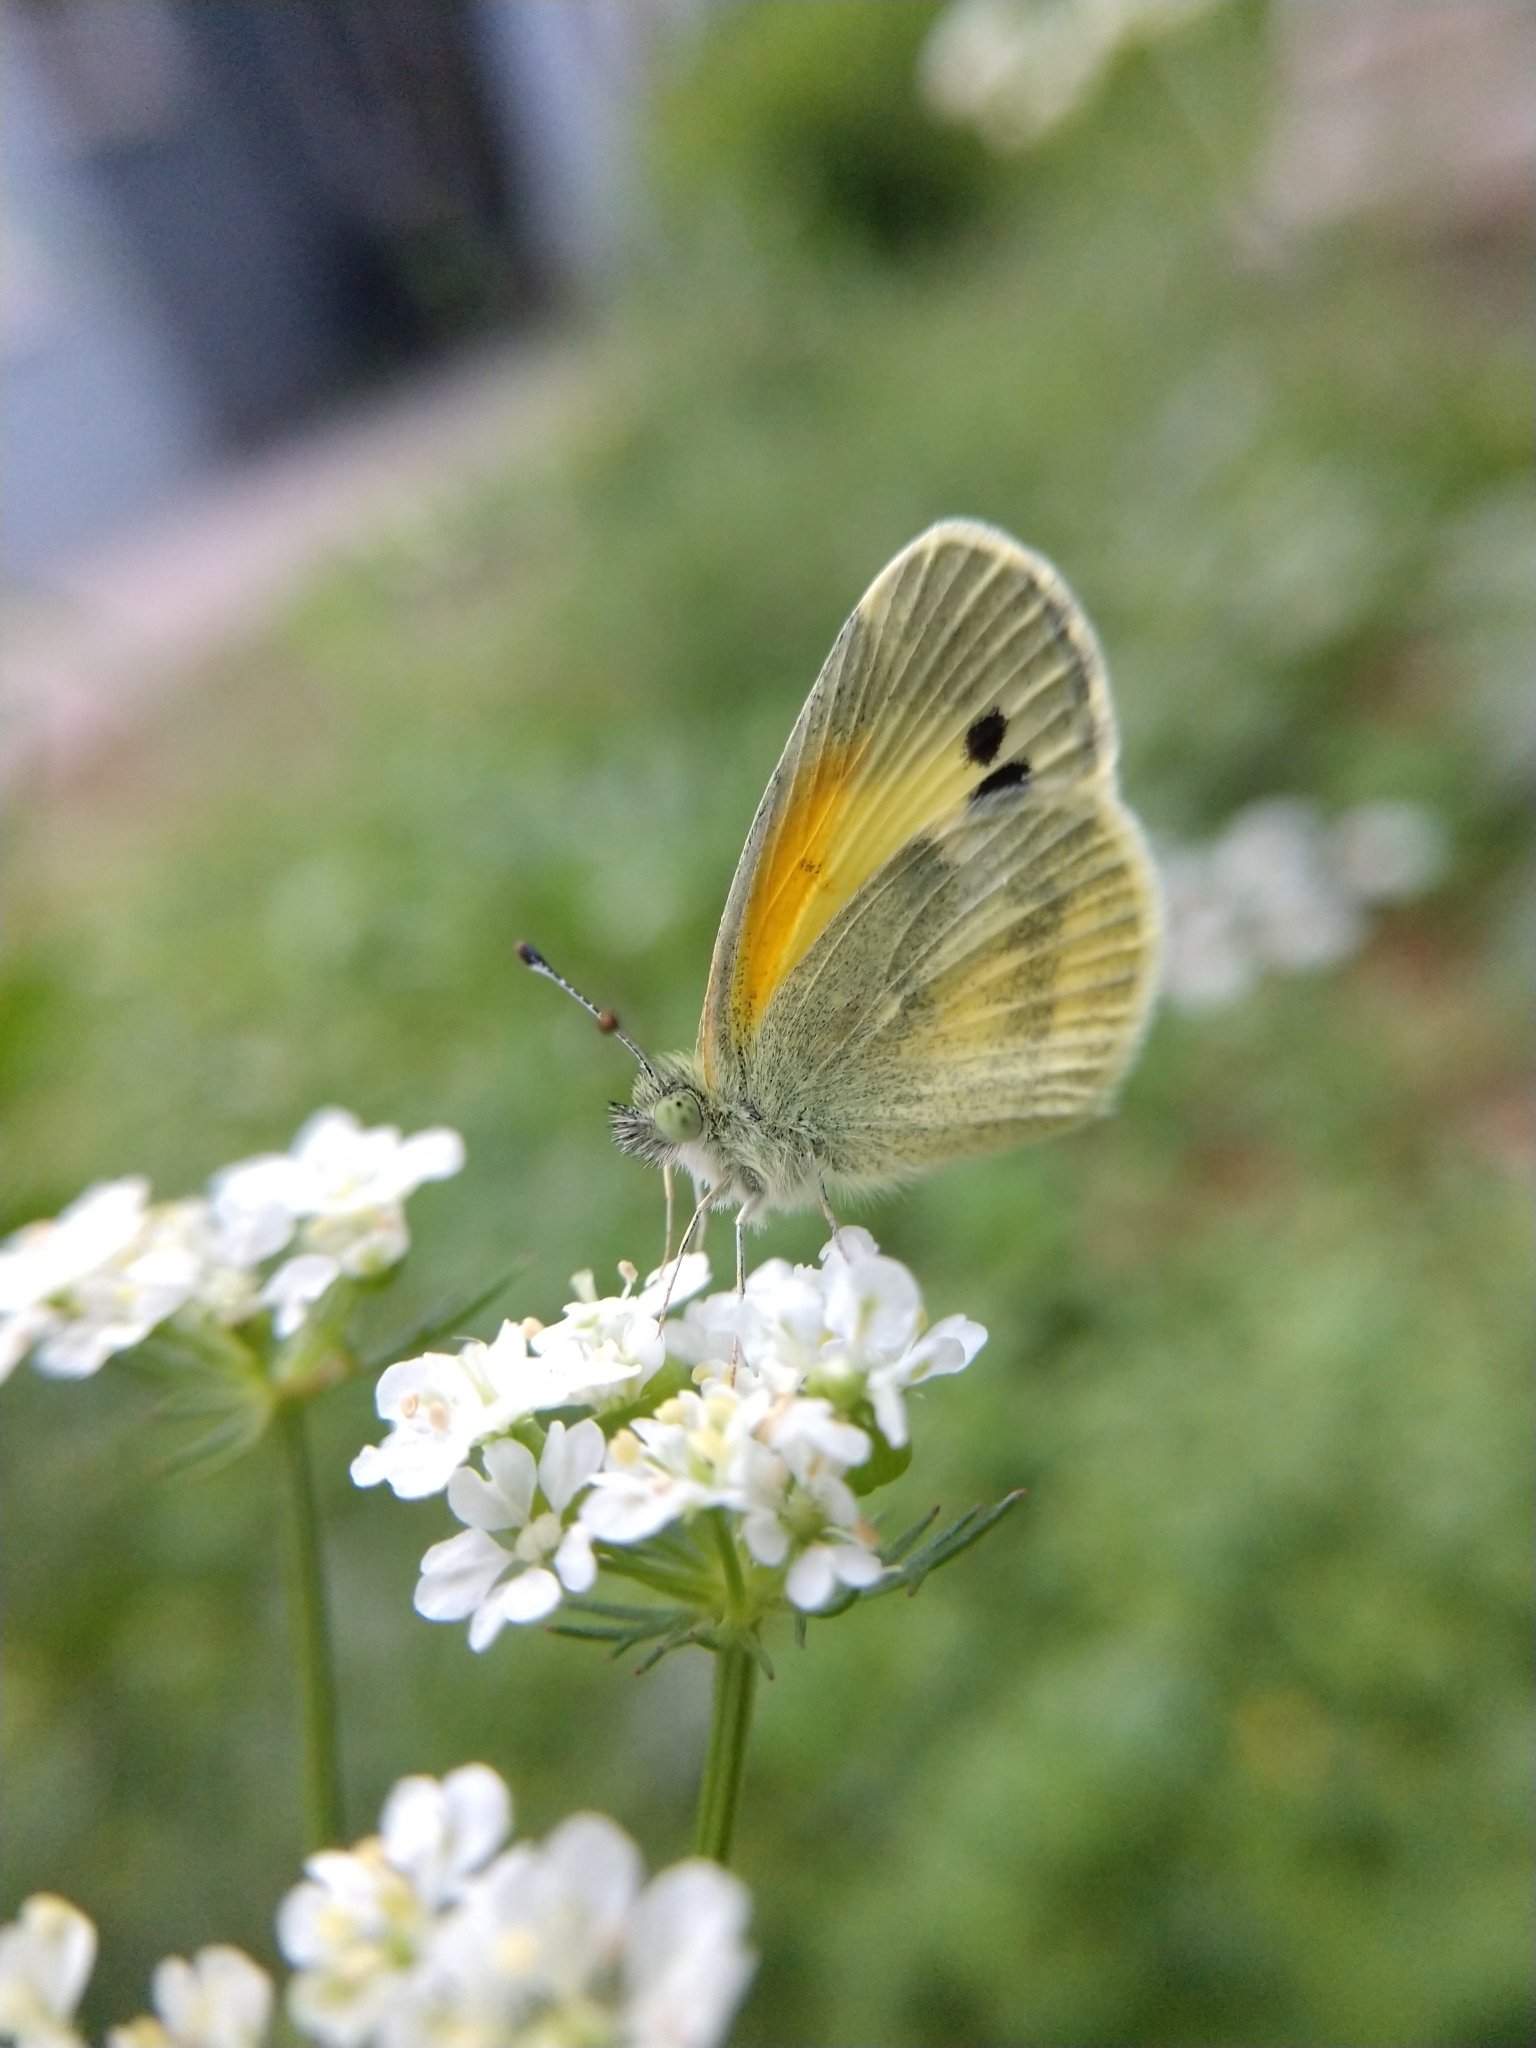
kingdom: Animalia
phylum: Arthropoda
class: Insecta
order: Lepidoptera
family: Pieridae
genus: Nathalis
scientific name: Nathalis iole
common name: Dainty sulphur
